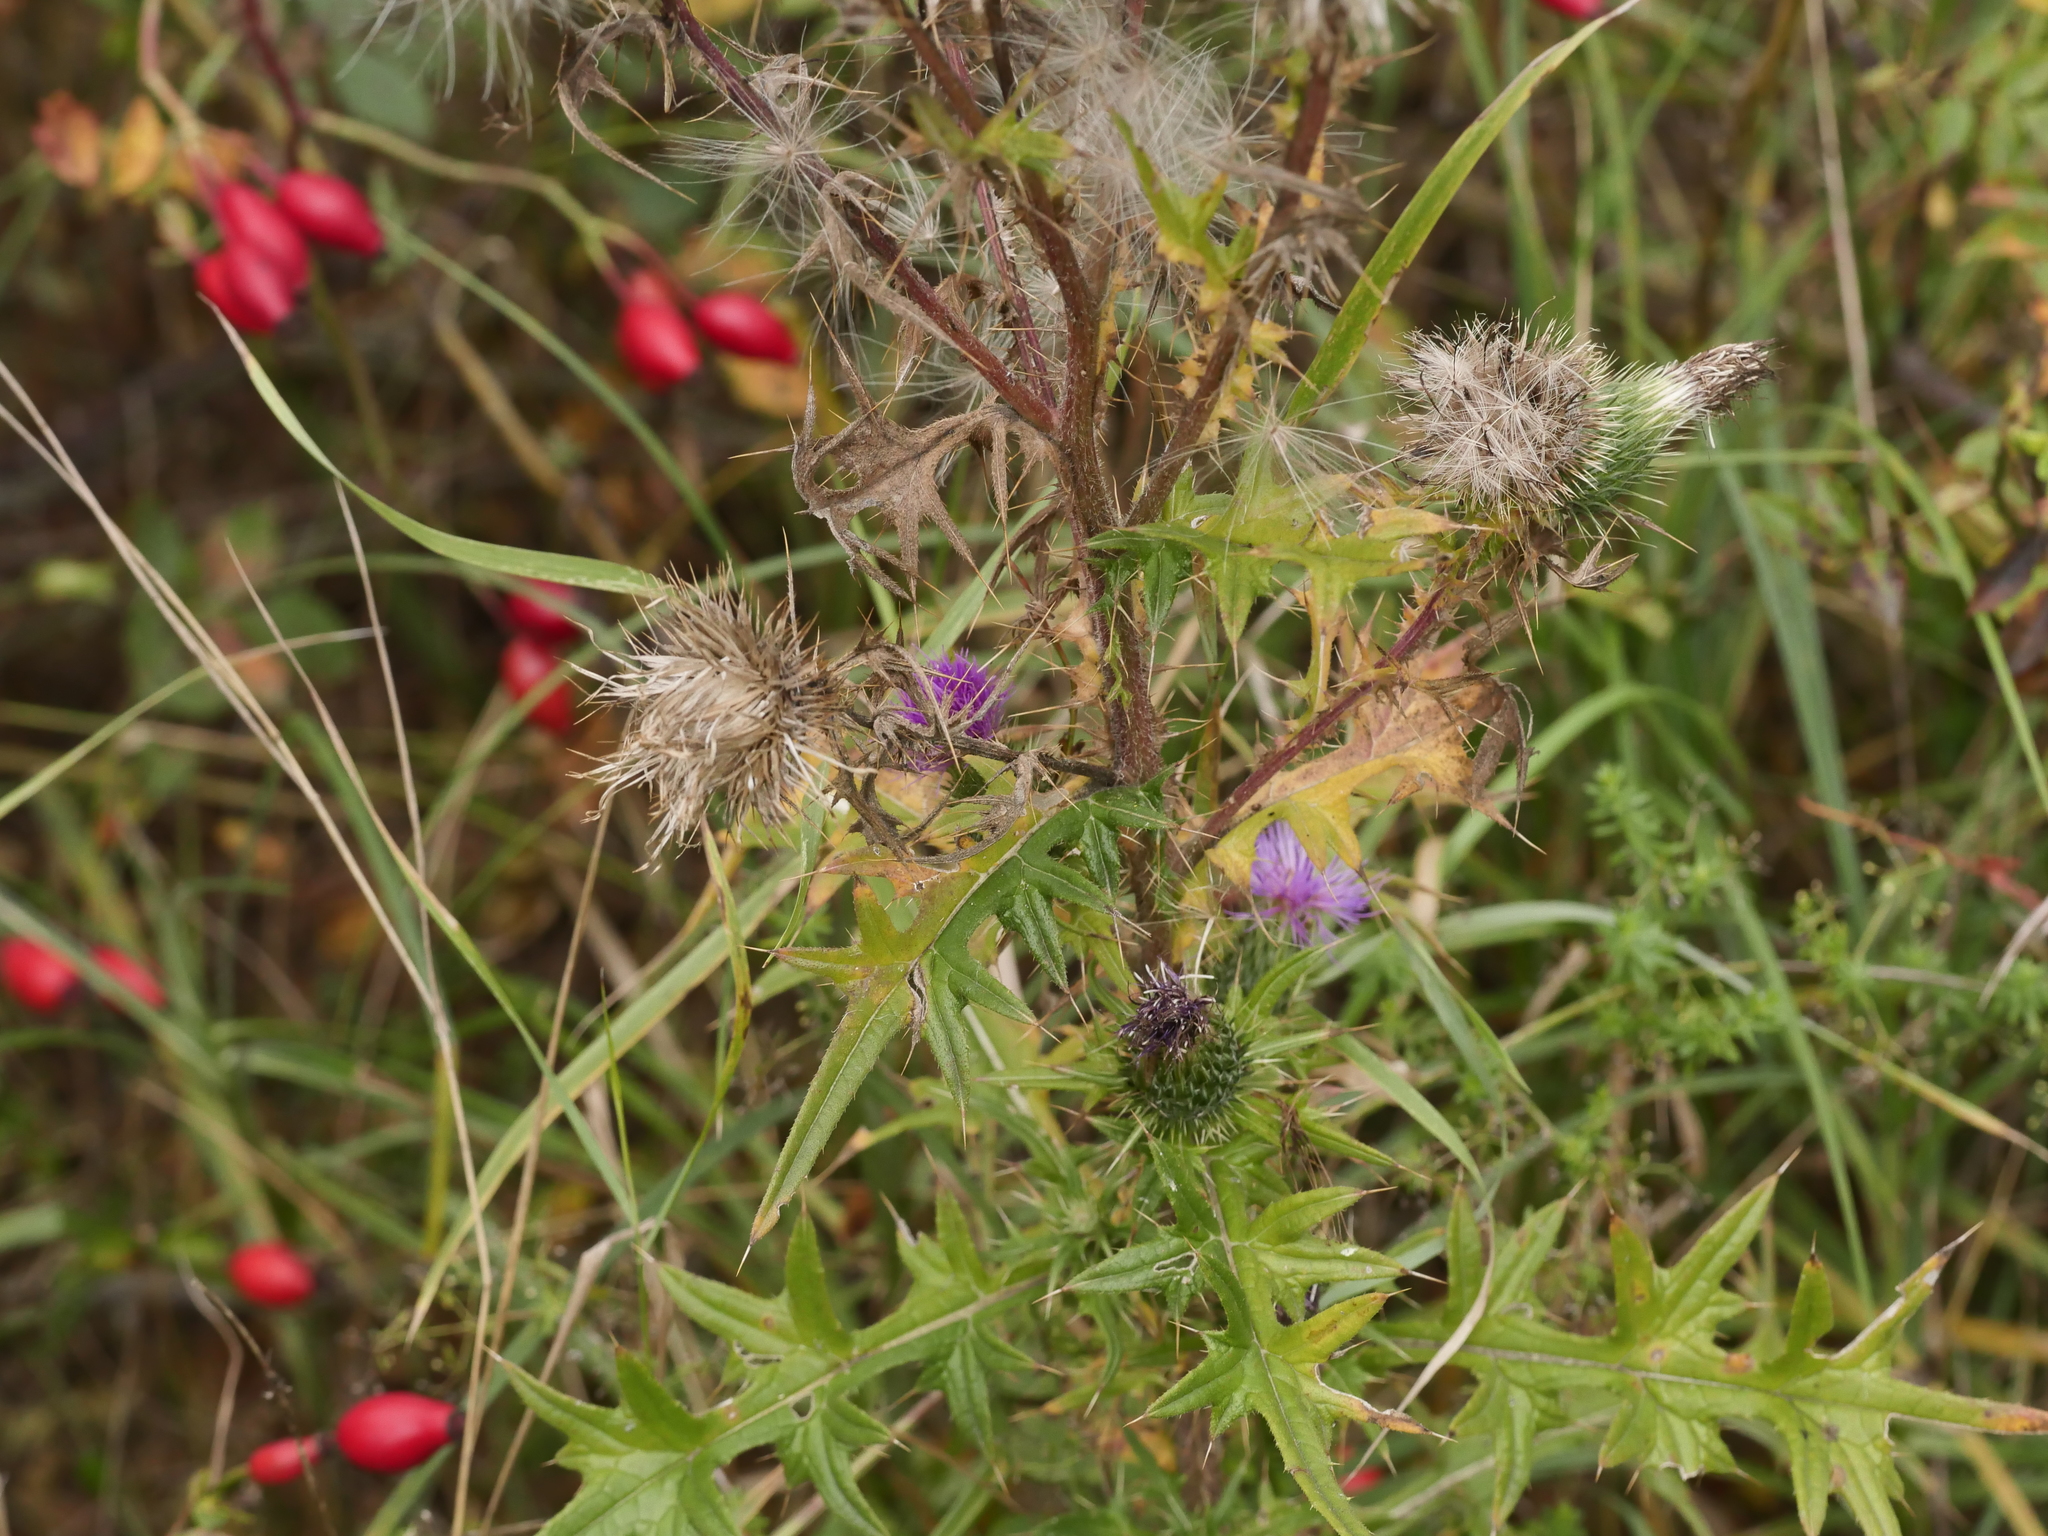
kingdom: Plantae
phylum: Tracheophyta
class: Magnoliopsida
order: Asterales
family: Asteraceae
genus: Cirsium
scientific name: Cirsium vulgare
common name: Bull thistle
